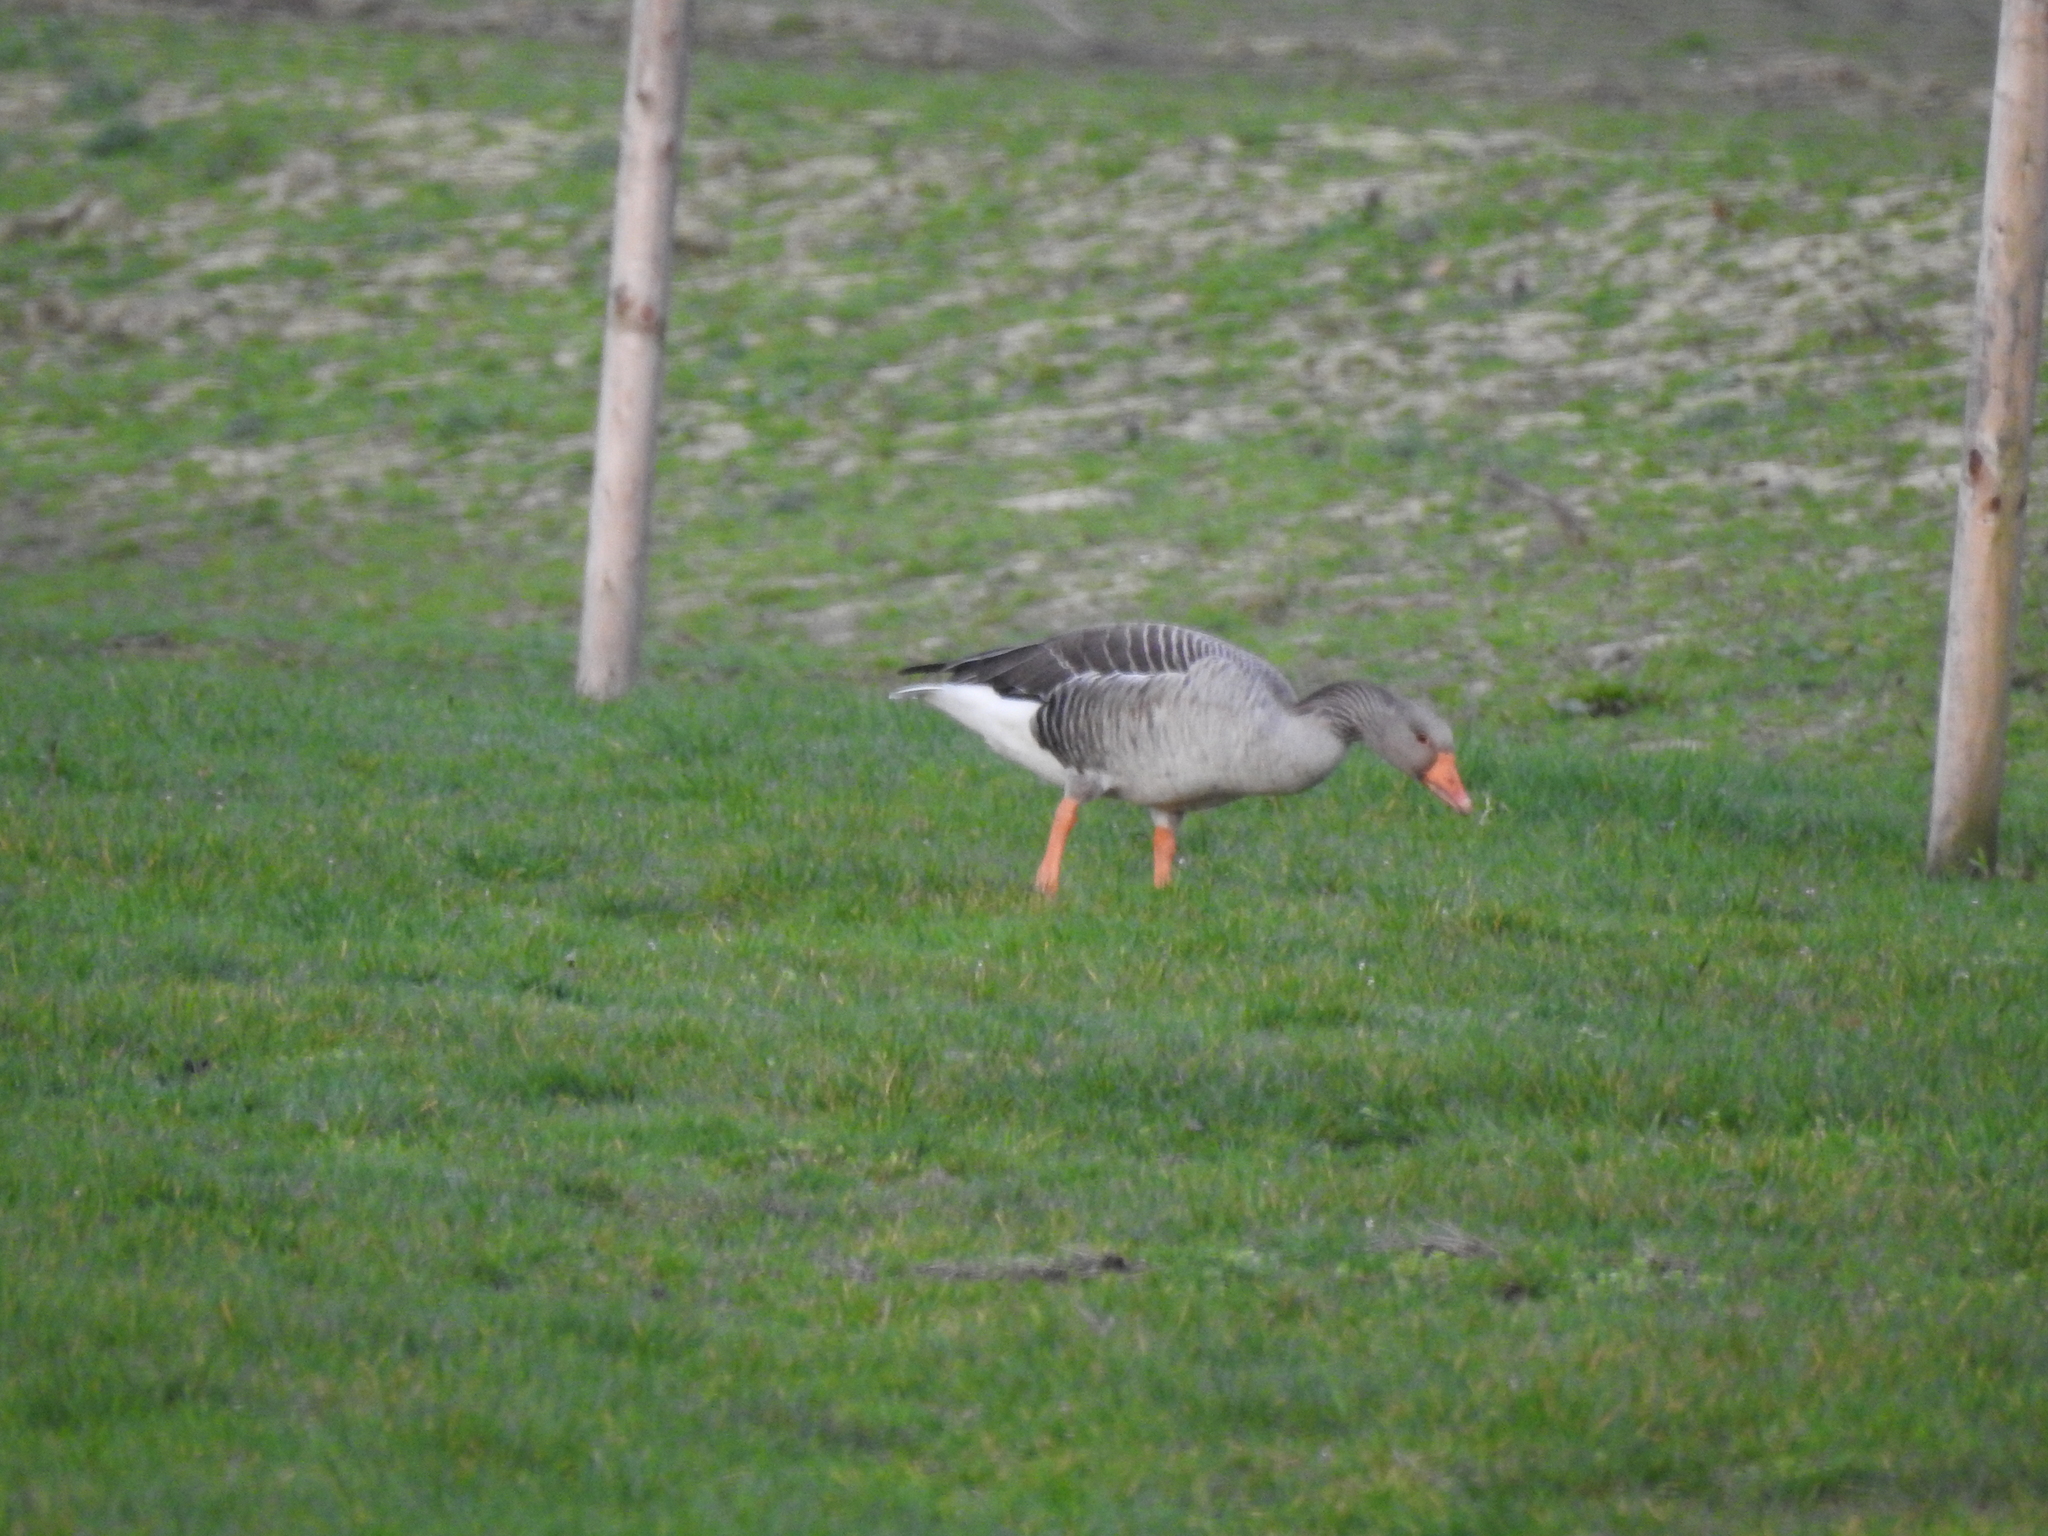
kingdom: Animalia
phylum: Chordata
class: Aves
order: Anseriformes
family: Anatidae
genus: Anser
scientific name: Anser anser
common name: Greylag goose
